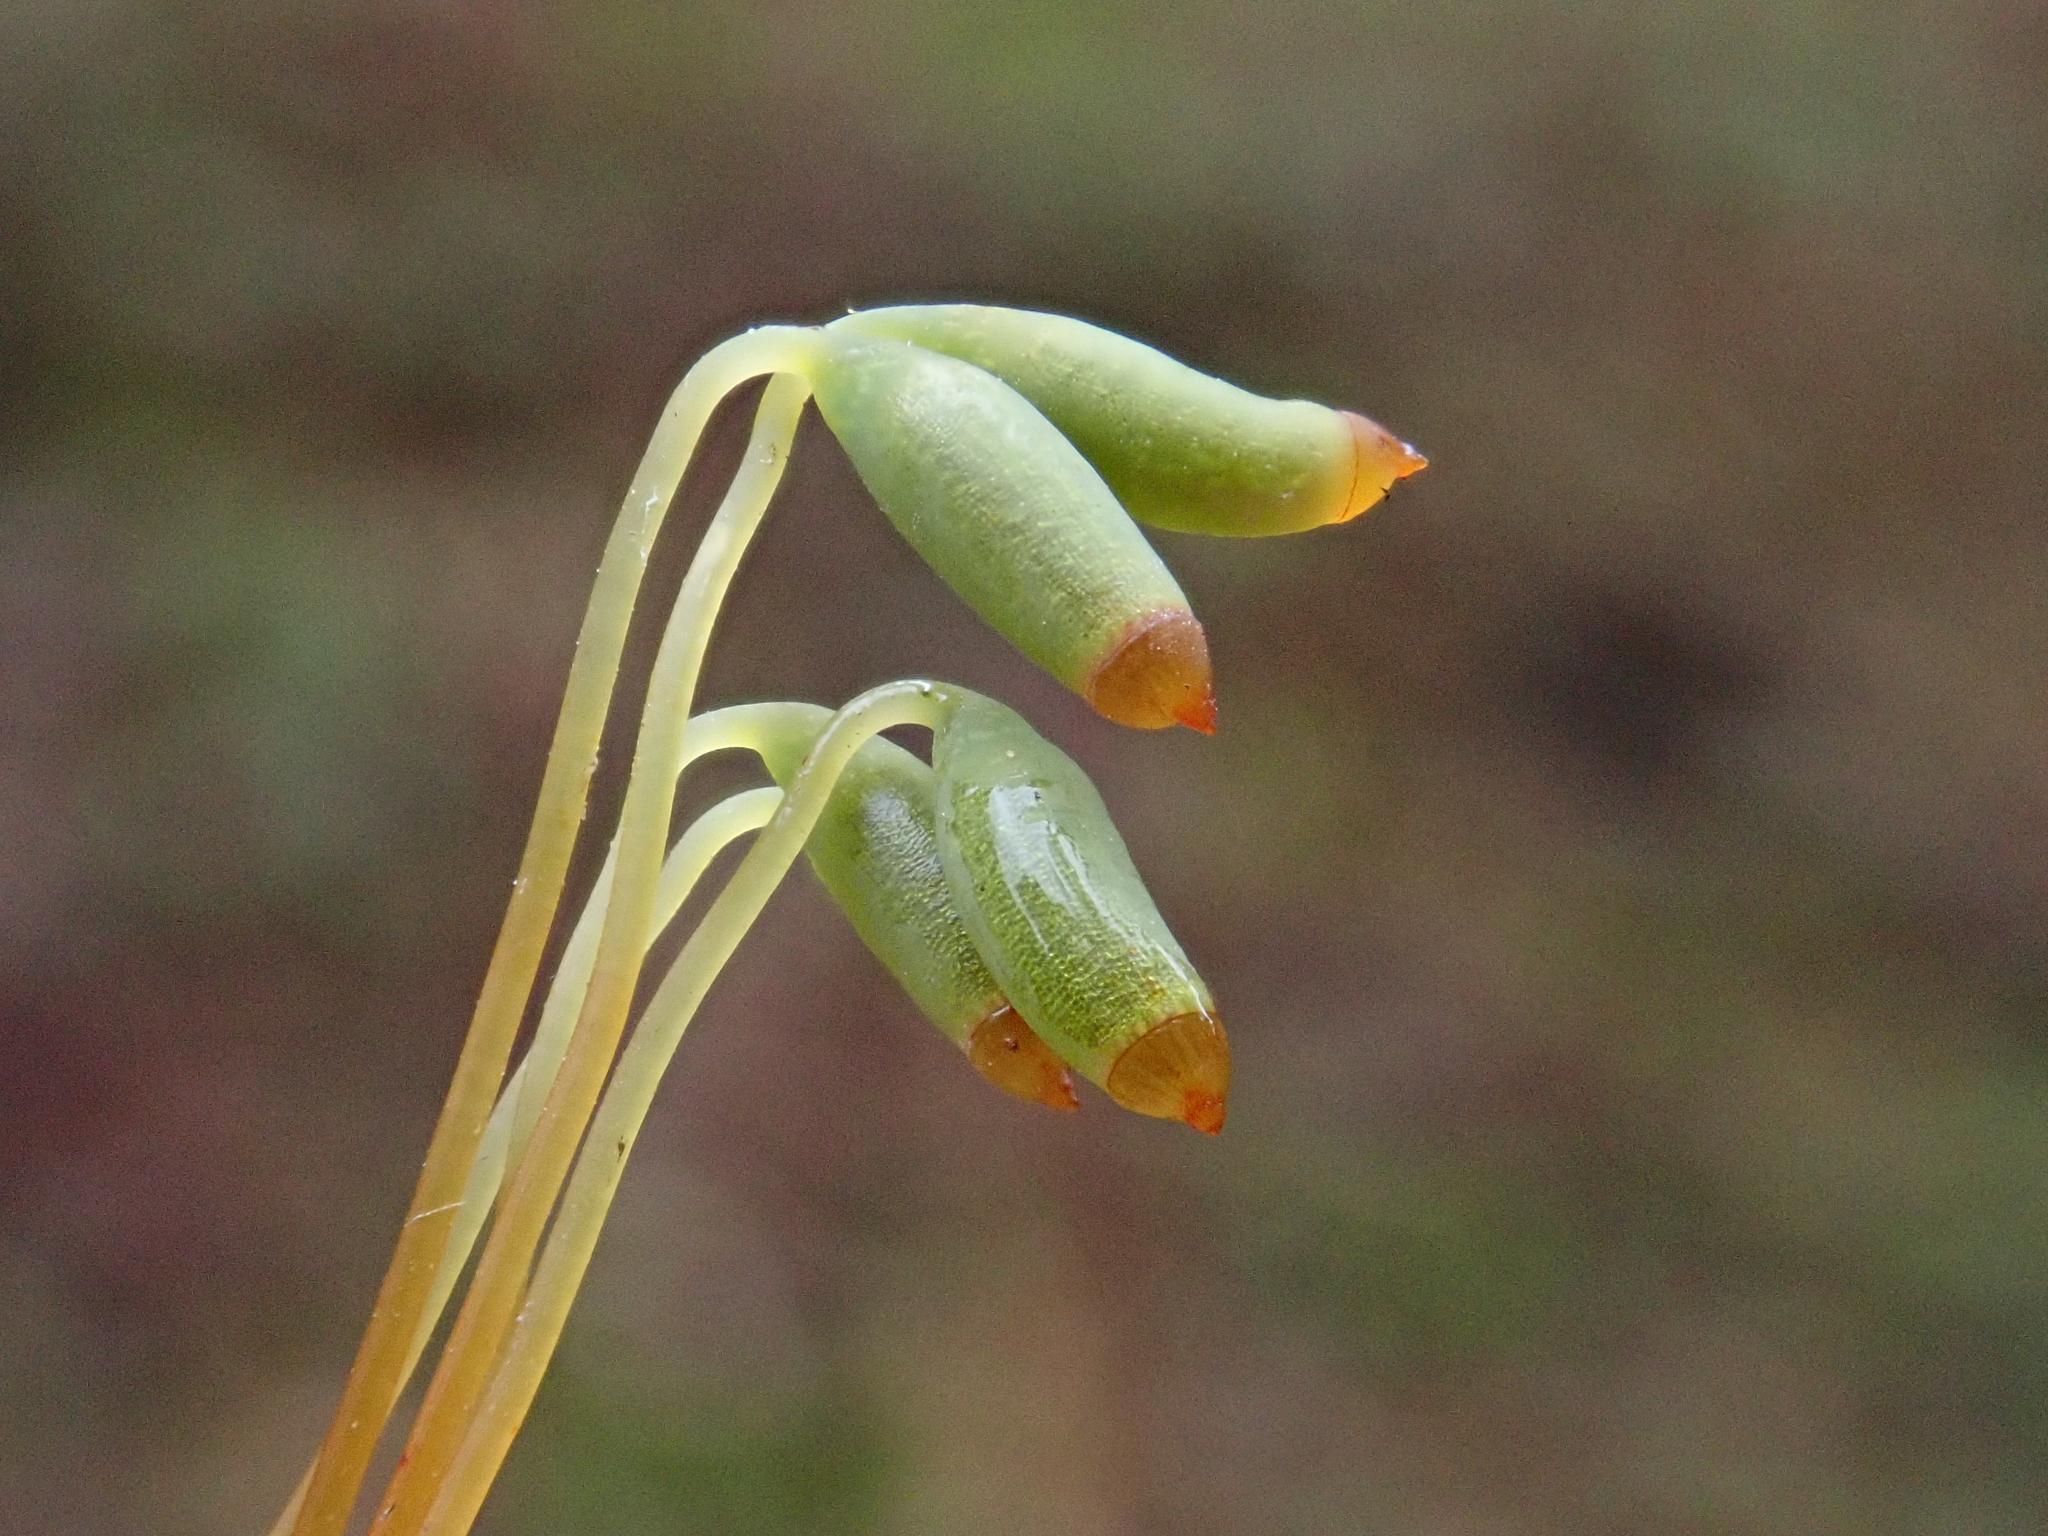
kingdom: Plantae
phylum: Bryophyta
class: Bryopsida
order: Bryales
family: Mniaceae
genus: Plagiomnium
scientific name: Plagiomnium affine
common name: Many-fruited thyme-moss
